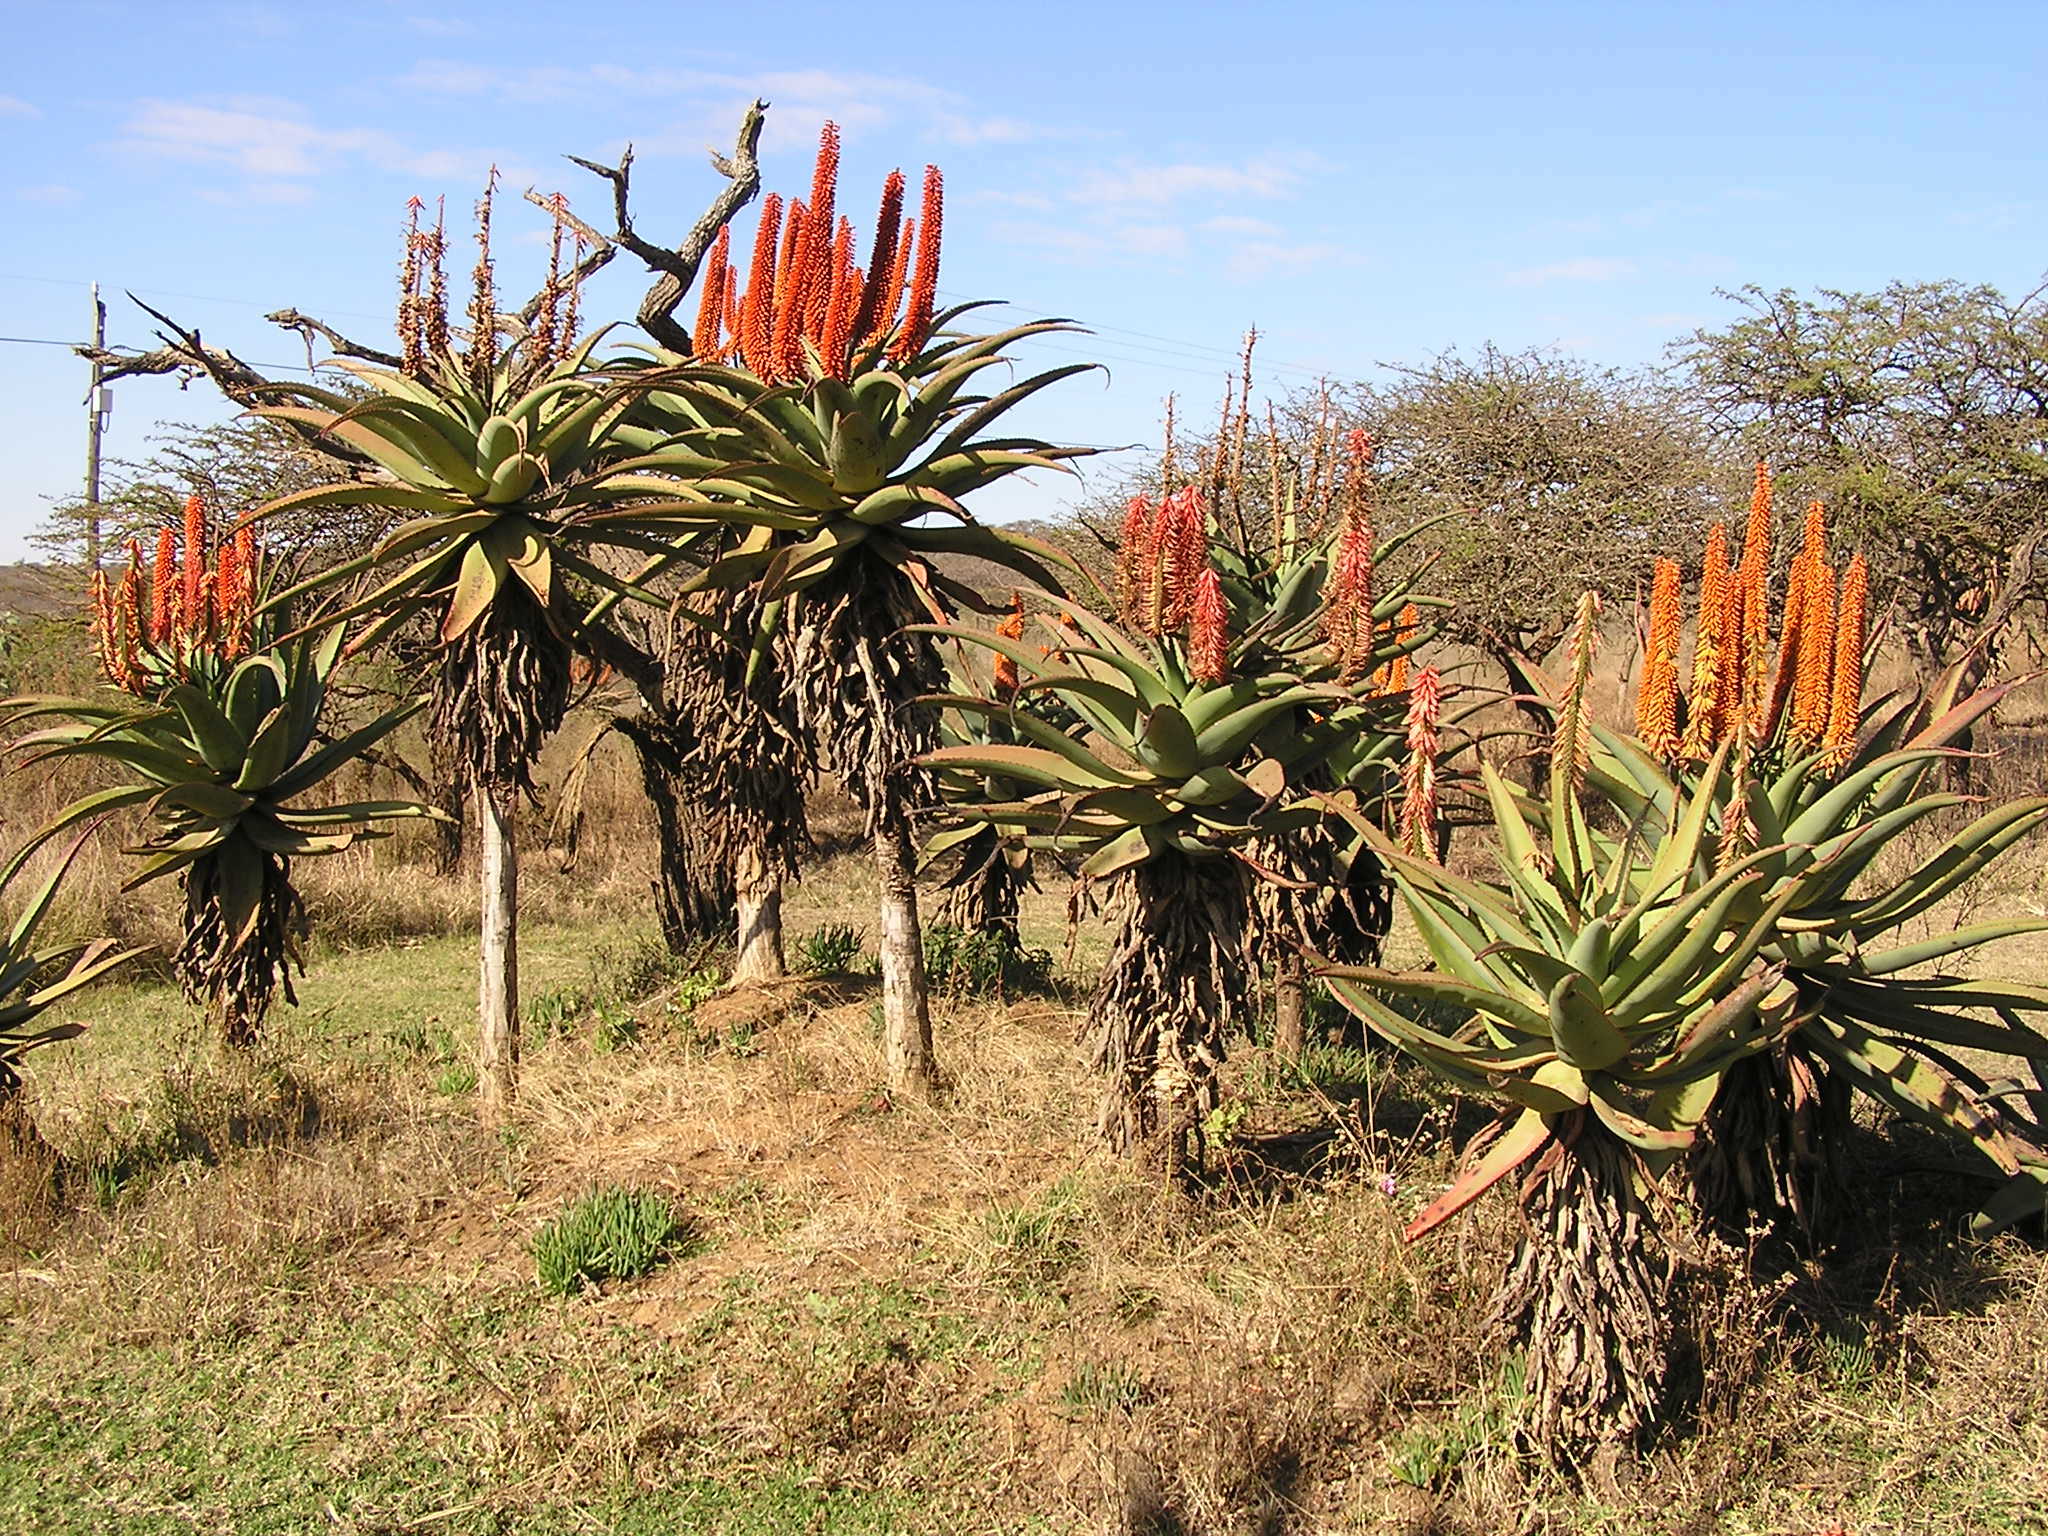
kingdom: Plantae
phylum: Tracheophyta
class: Liliopsida
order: Asparagales
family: Asphodelaceae
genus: Aloe
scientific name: Aloe ferox
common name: Bitter aloe
